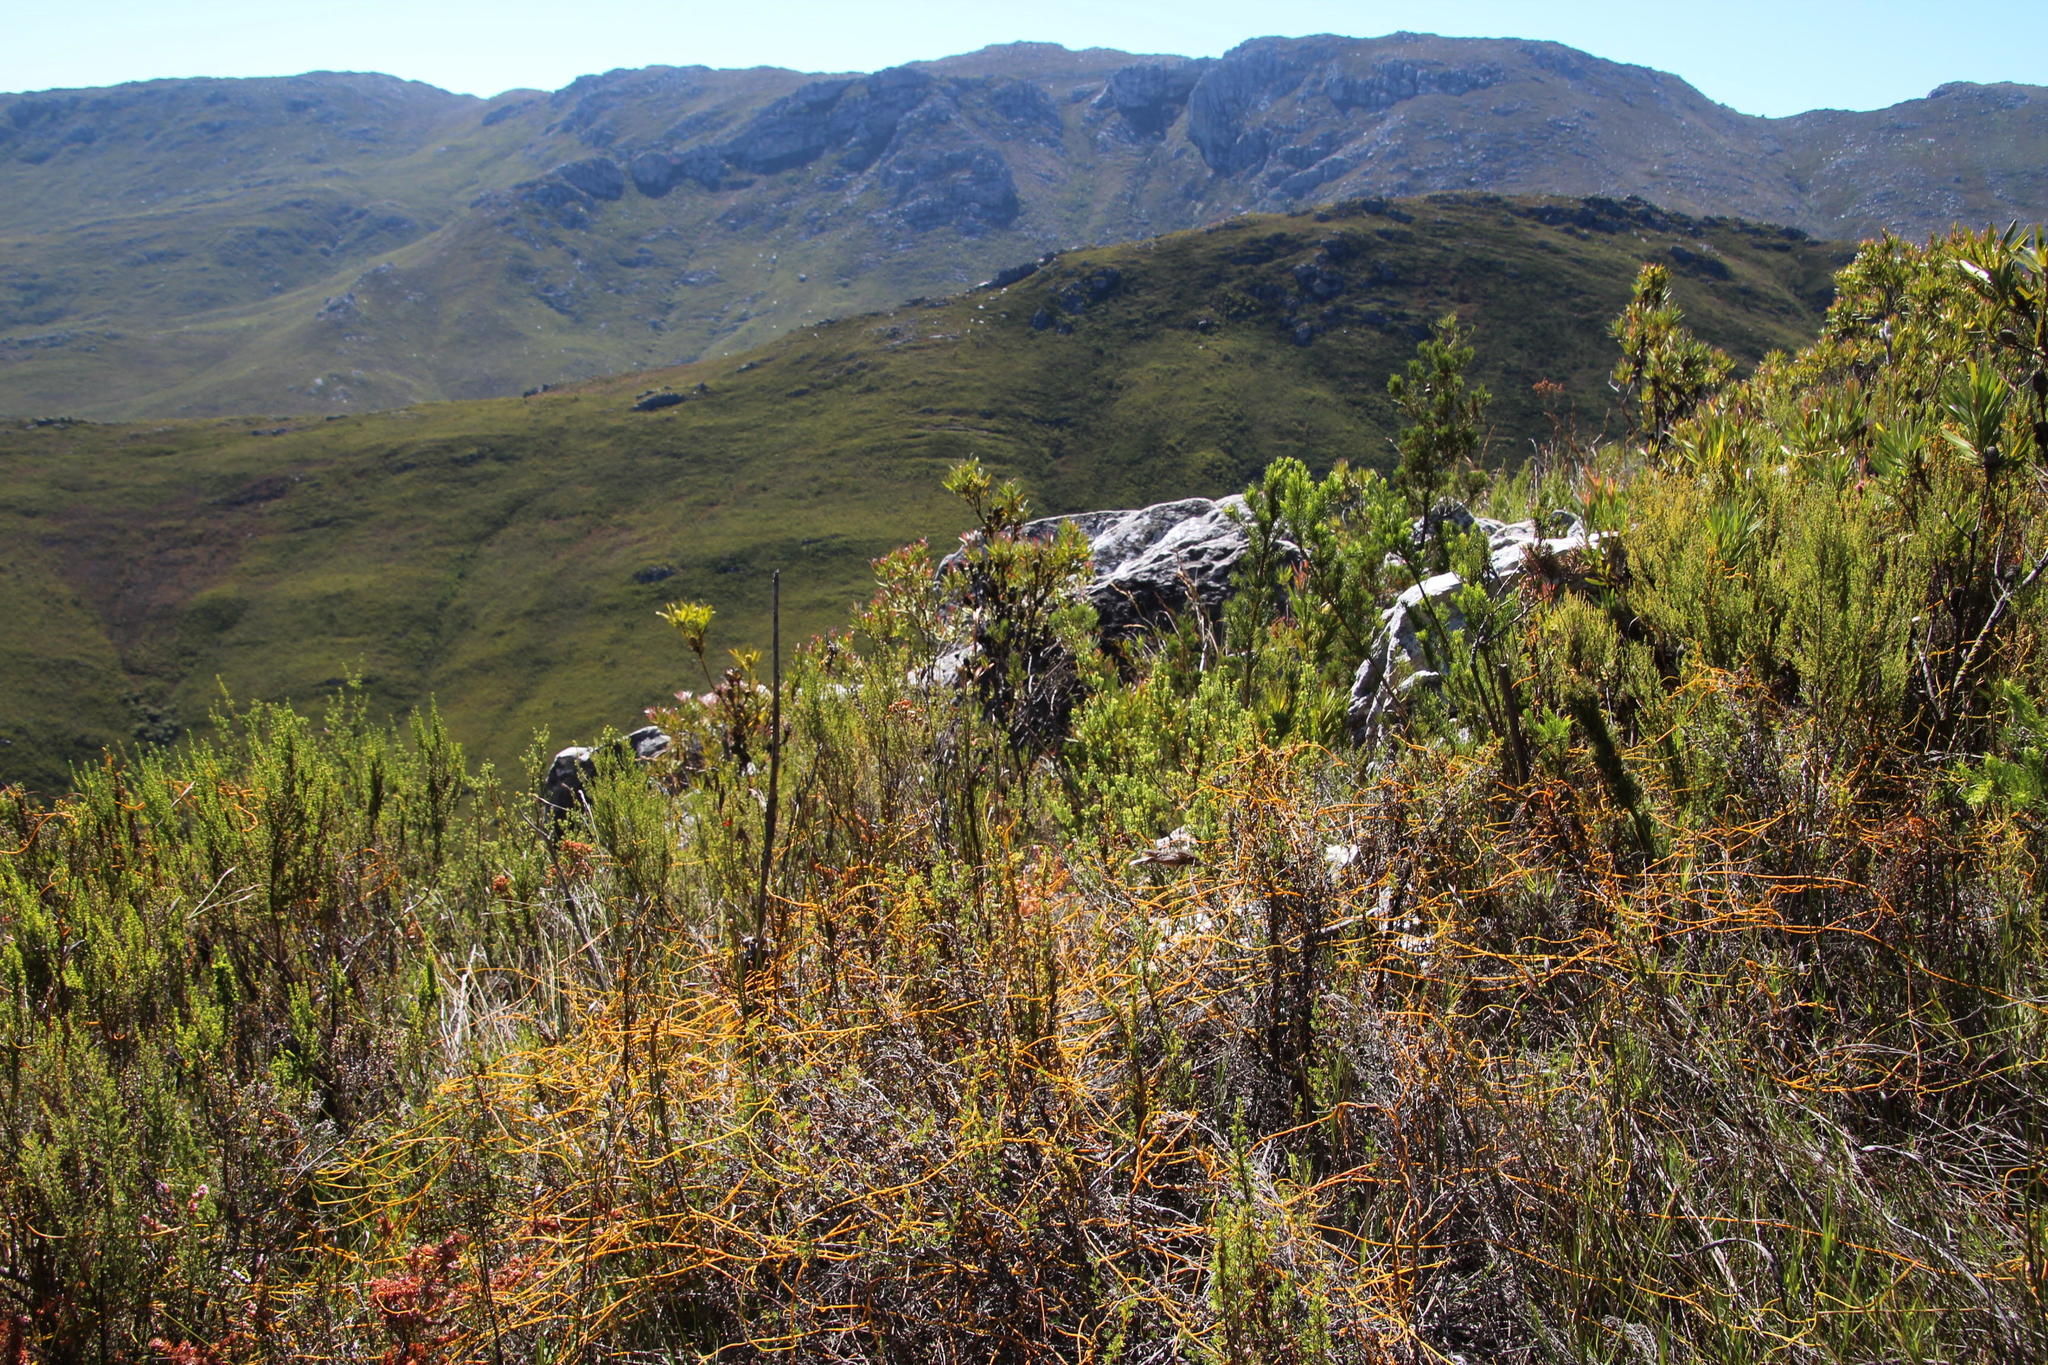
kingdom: Plantae
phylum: Tracheophyta
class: Magnoliopsida
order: Laurales
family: Lauraceae
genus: Cassytha
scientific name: Cassytha ciliolata
